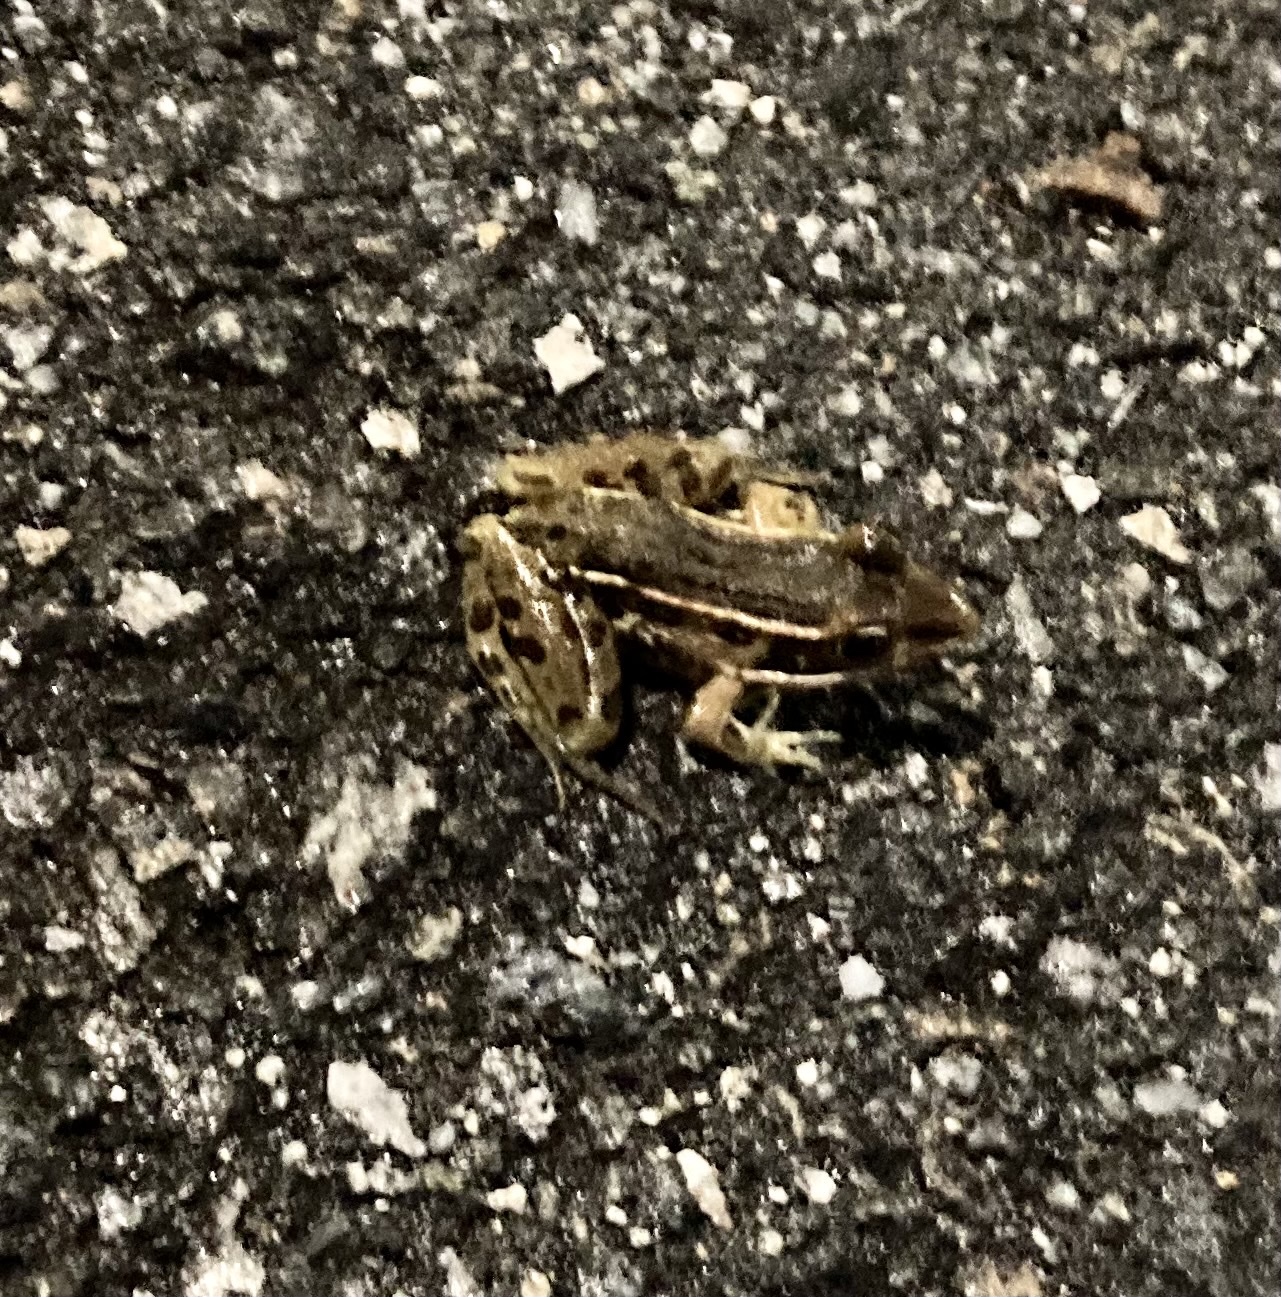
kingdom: Animalia
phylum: Chordata
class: Amphibia
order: Anura
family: Ranidae
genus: Lithobates
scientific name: Lithobates sphenocephalus
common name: Southern leopard frog
